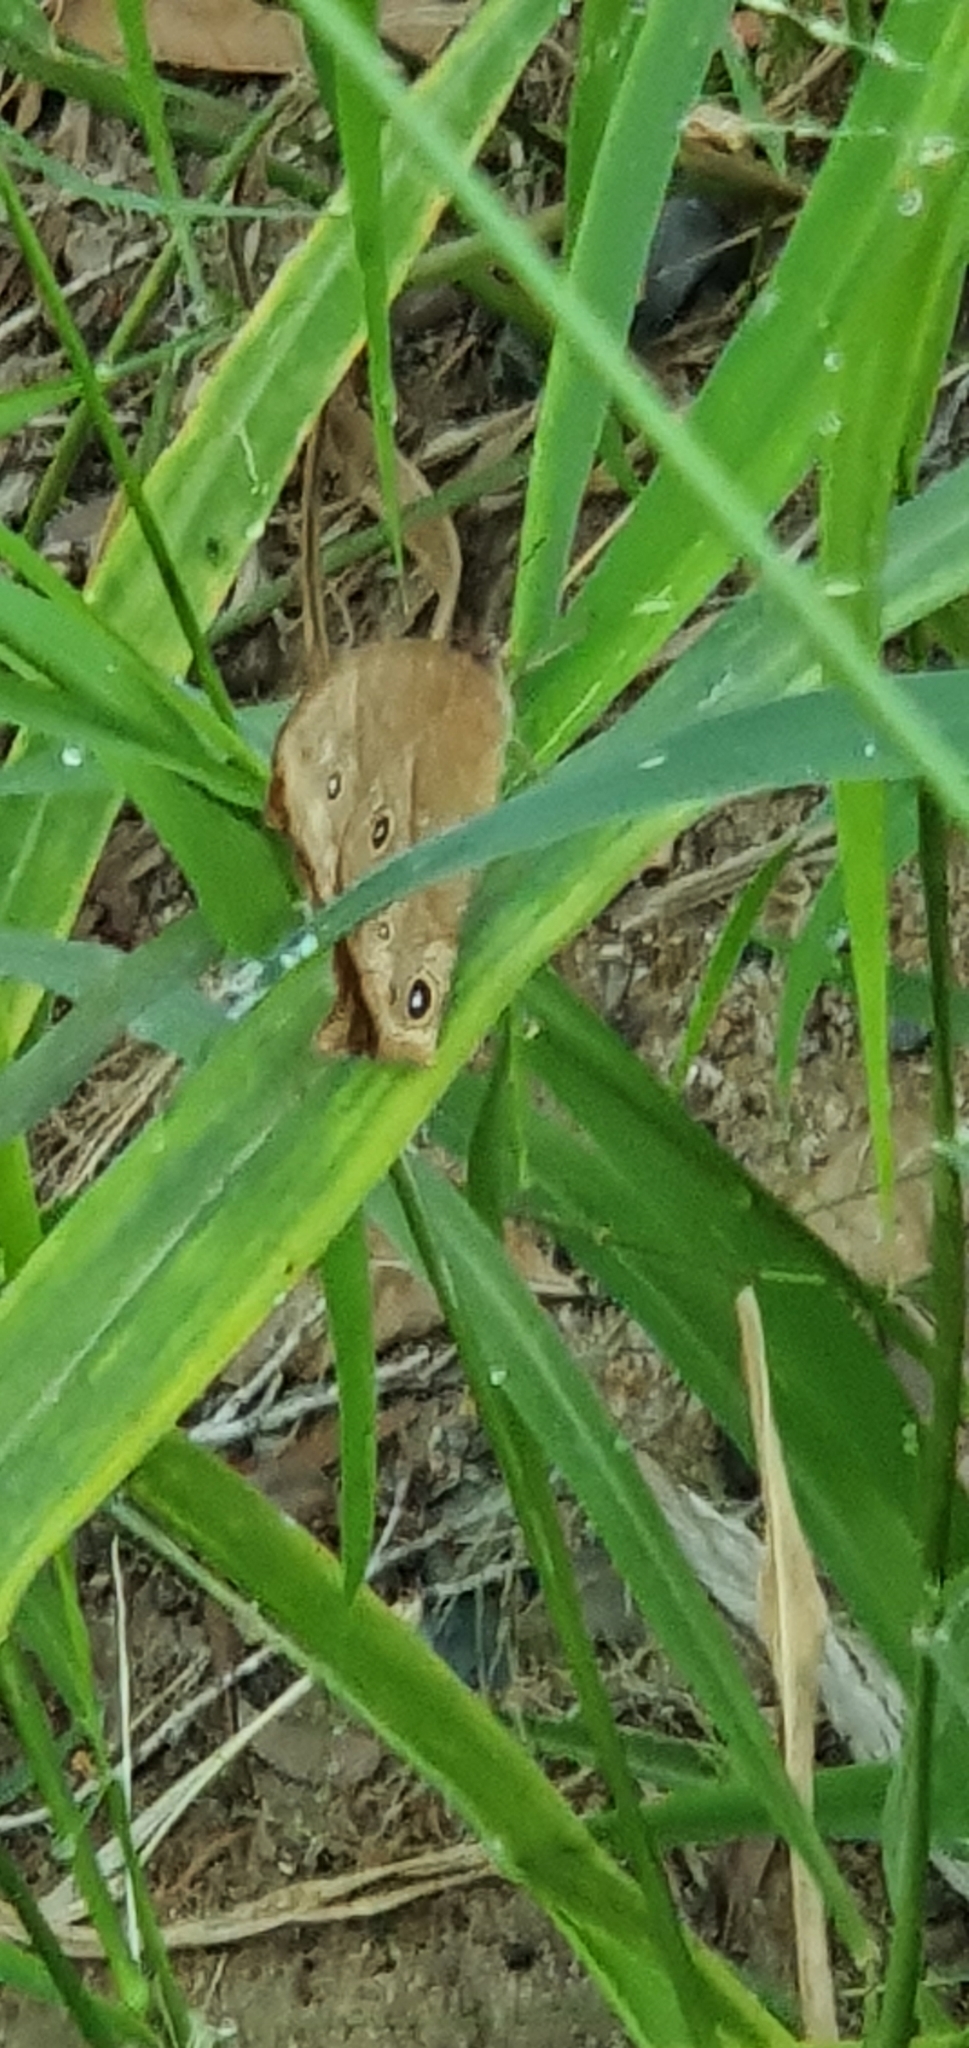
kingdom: Animalia
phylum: Arthropoda
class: Insecta
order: Lepidoptera
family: Nymphalidae
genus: Melanitis
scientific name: Melanitis leda
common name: Twilight brown
